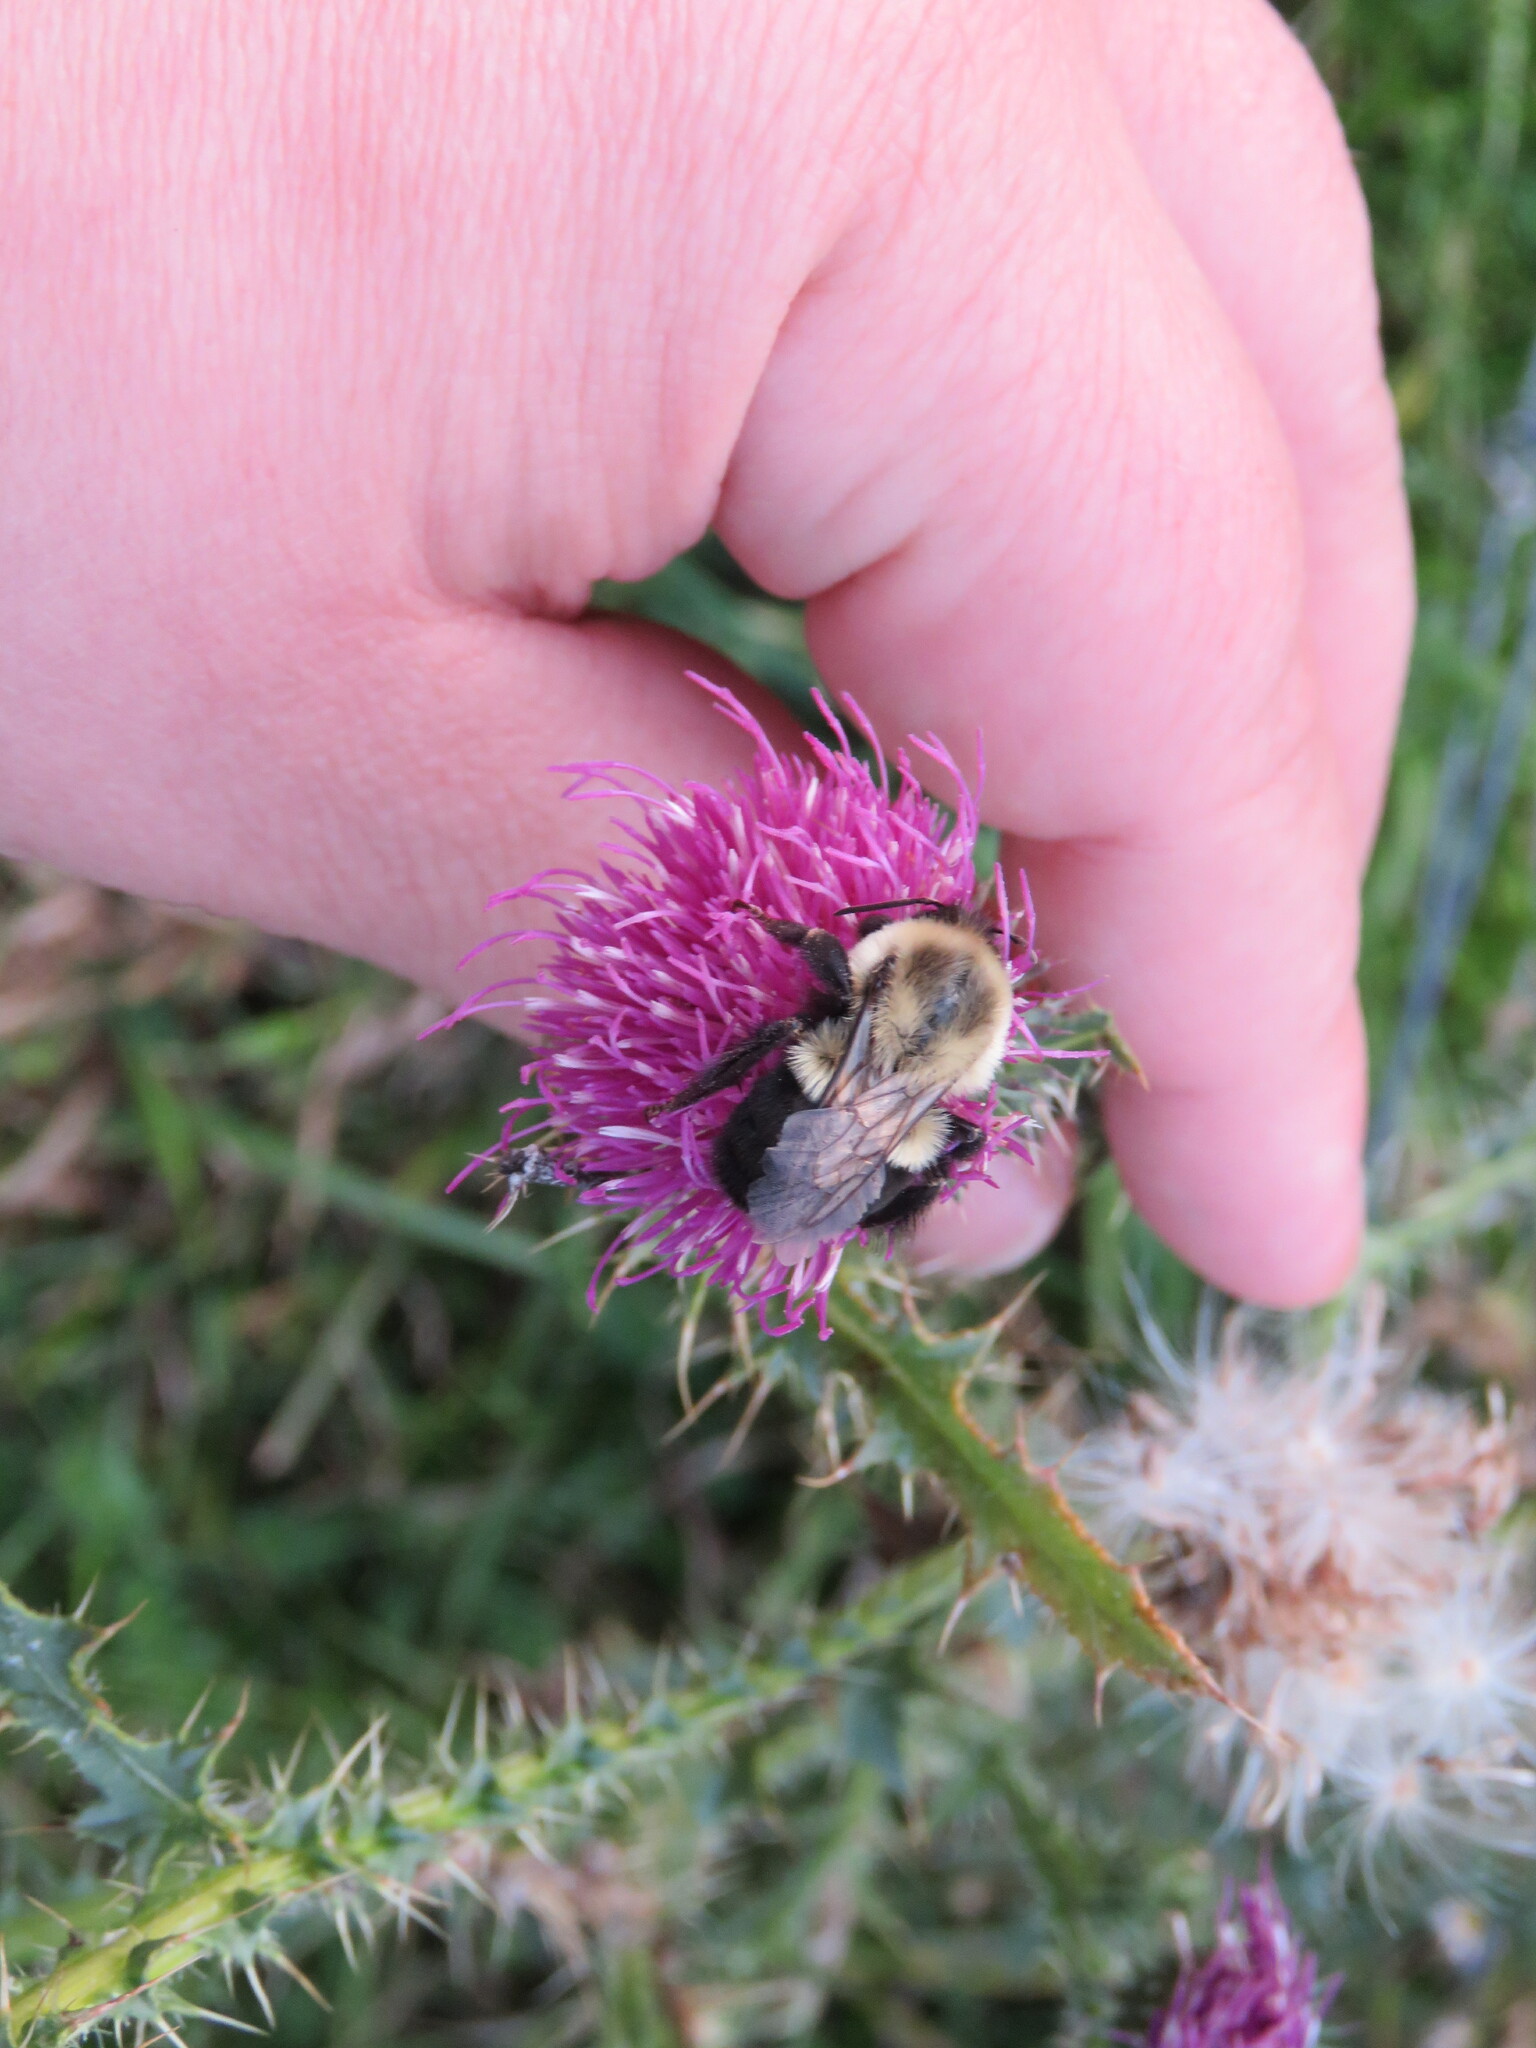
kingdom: Animalia
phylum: Arthropoda
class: Insecta
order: Hymenoptera
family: Apidae
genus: Bombus
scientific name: Bombus impatiens
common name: Common eastern bumble bee
